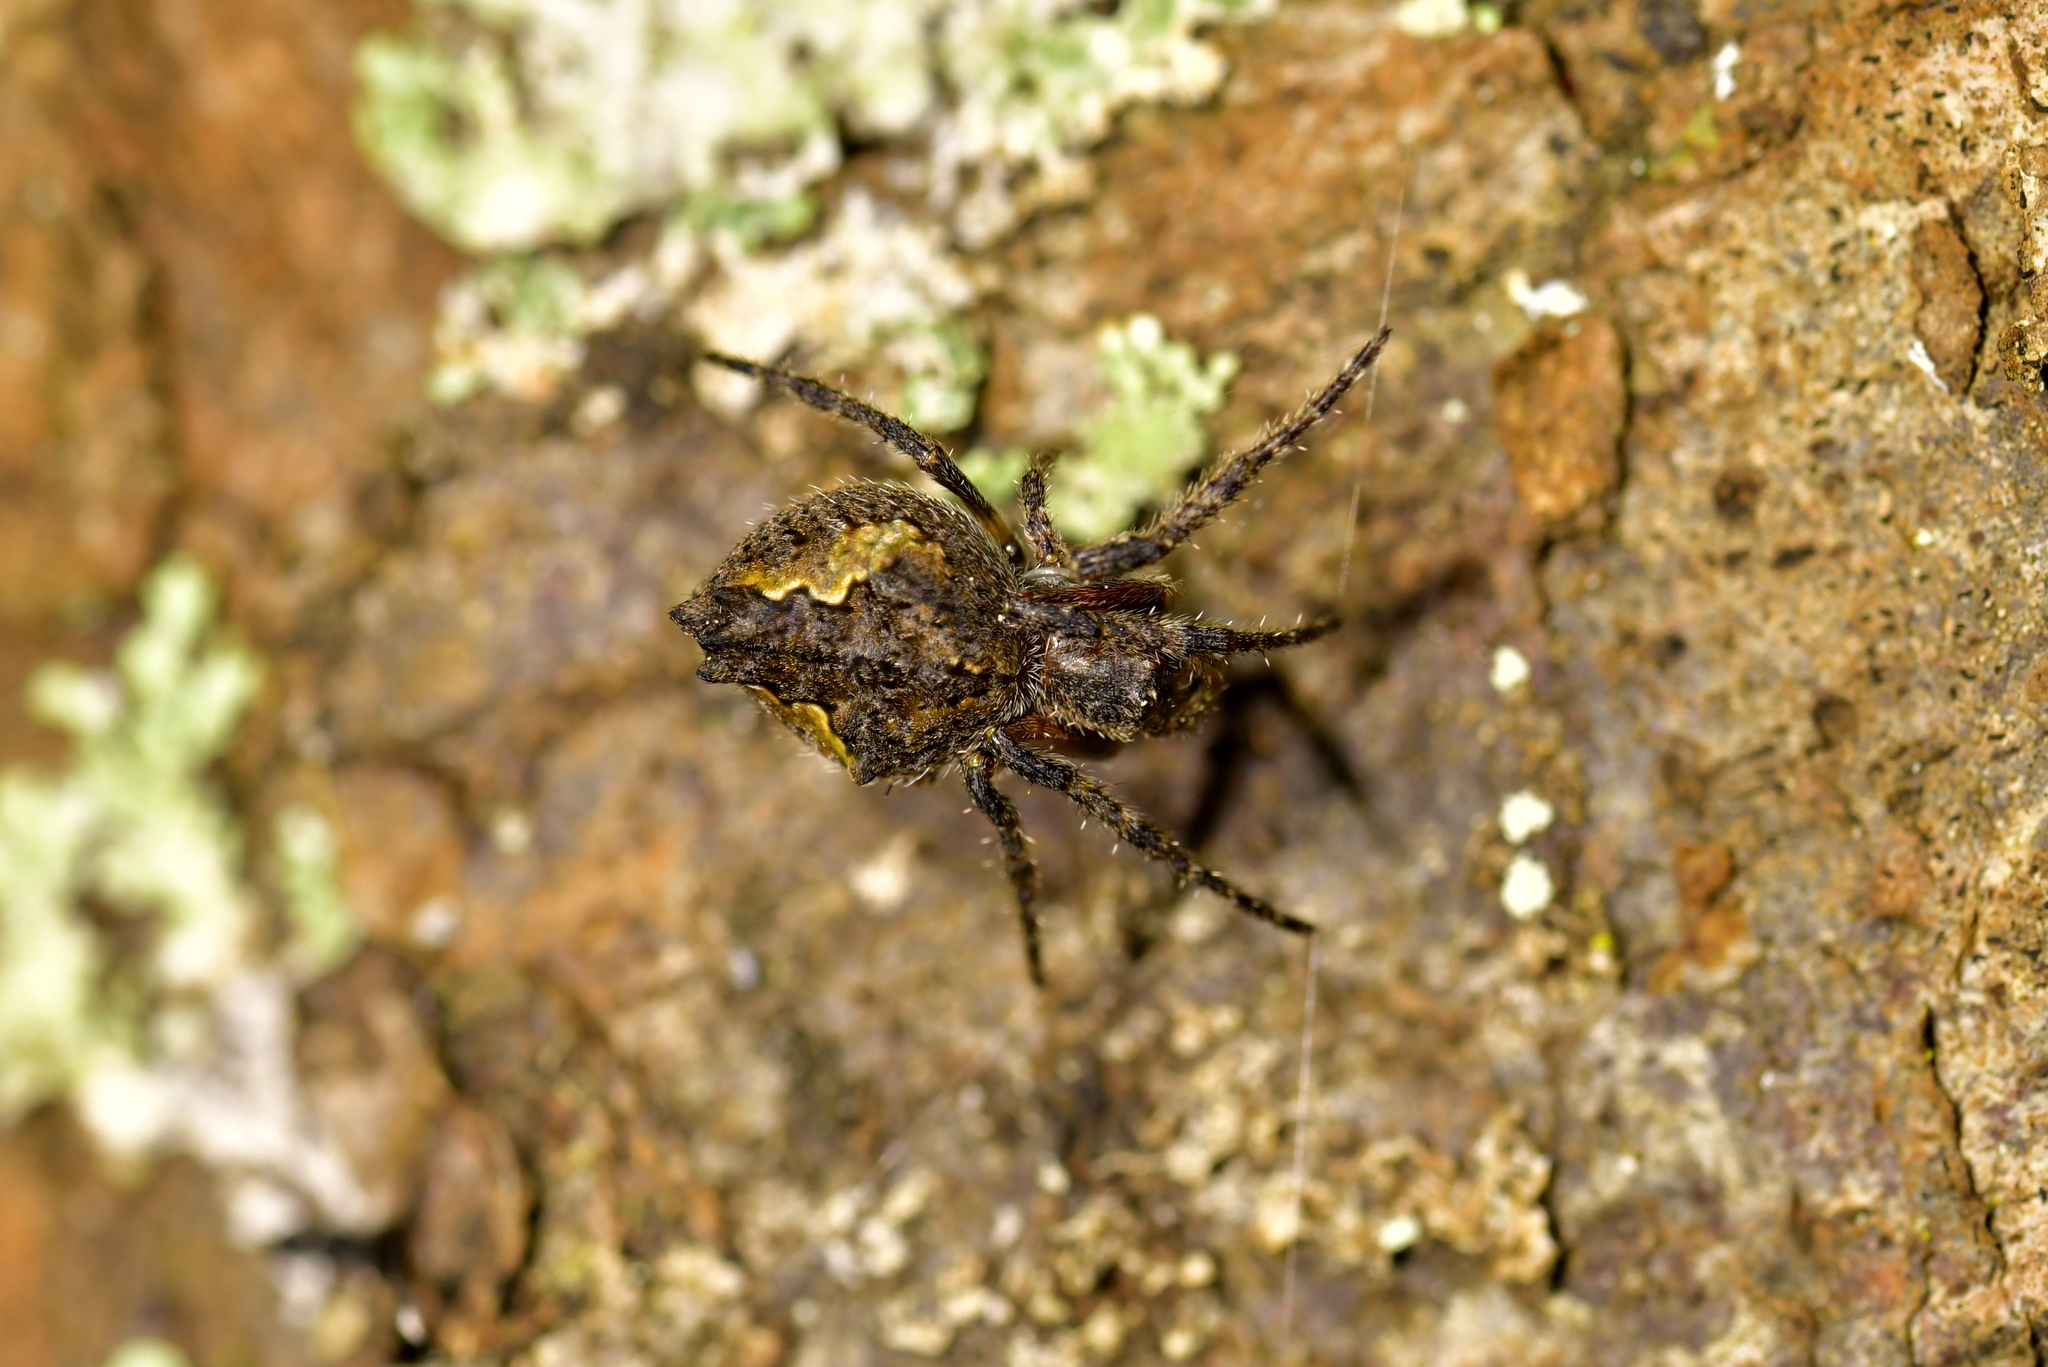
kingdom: Animalia
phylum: Arthropoda
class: Arachnida
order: Araneae
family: Araneidae
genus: Eriophora
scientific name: Eriophora pustulosa
